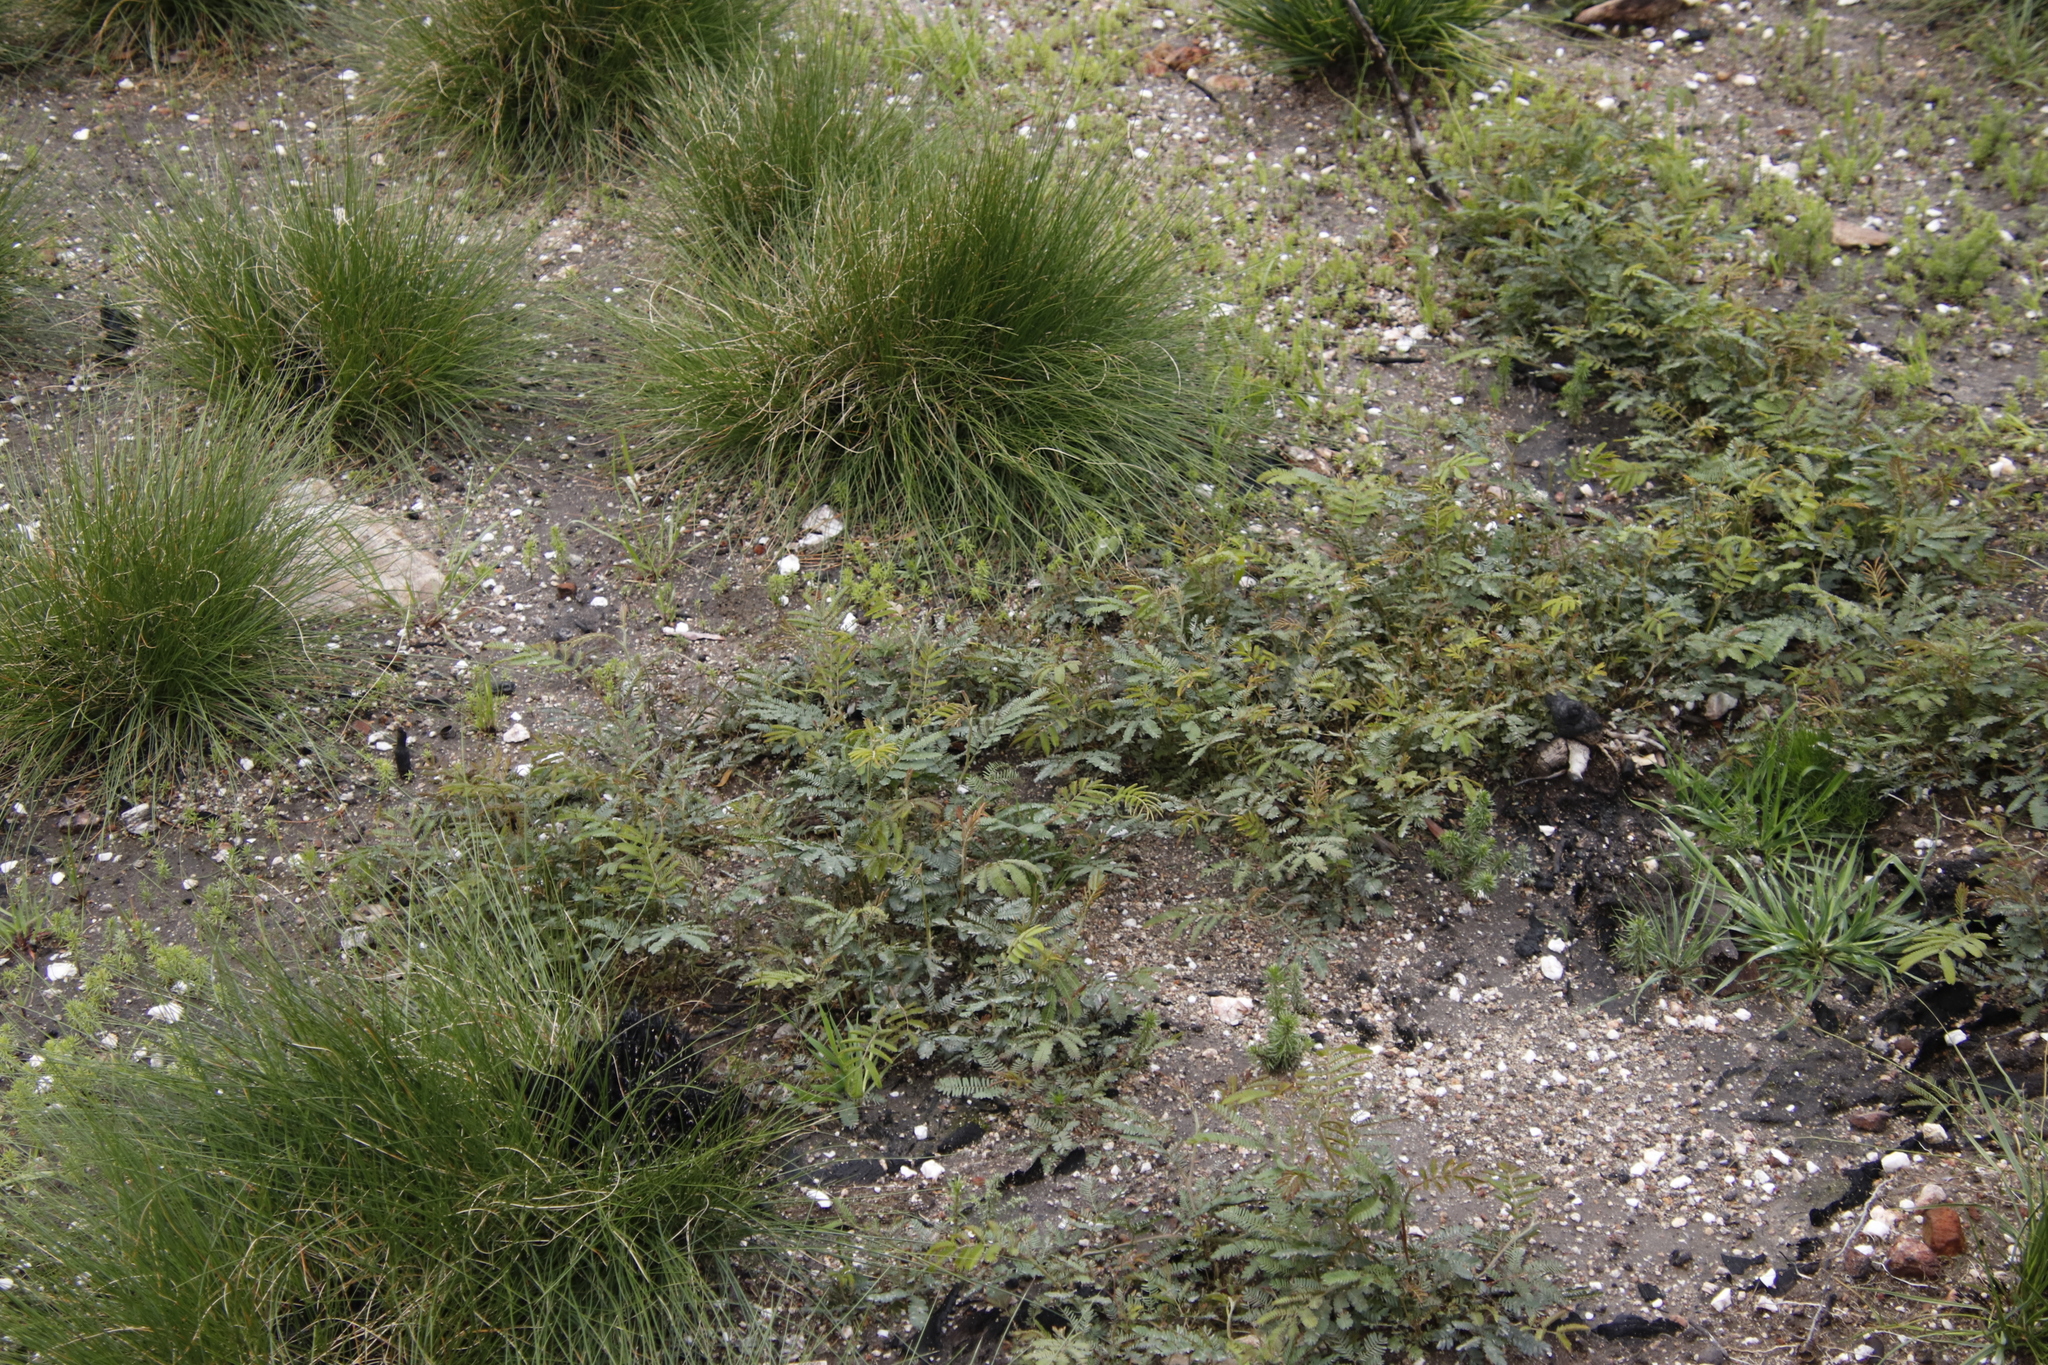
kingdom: Plantae
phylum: Tracheophyta
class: Magnoliopsida
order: Fabales
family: Fabaceae
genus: Paraserianthes
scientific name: Paraserianthes lophantha
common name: Plume albizia
